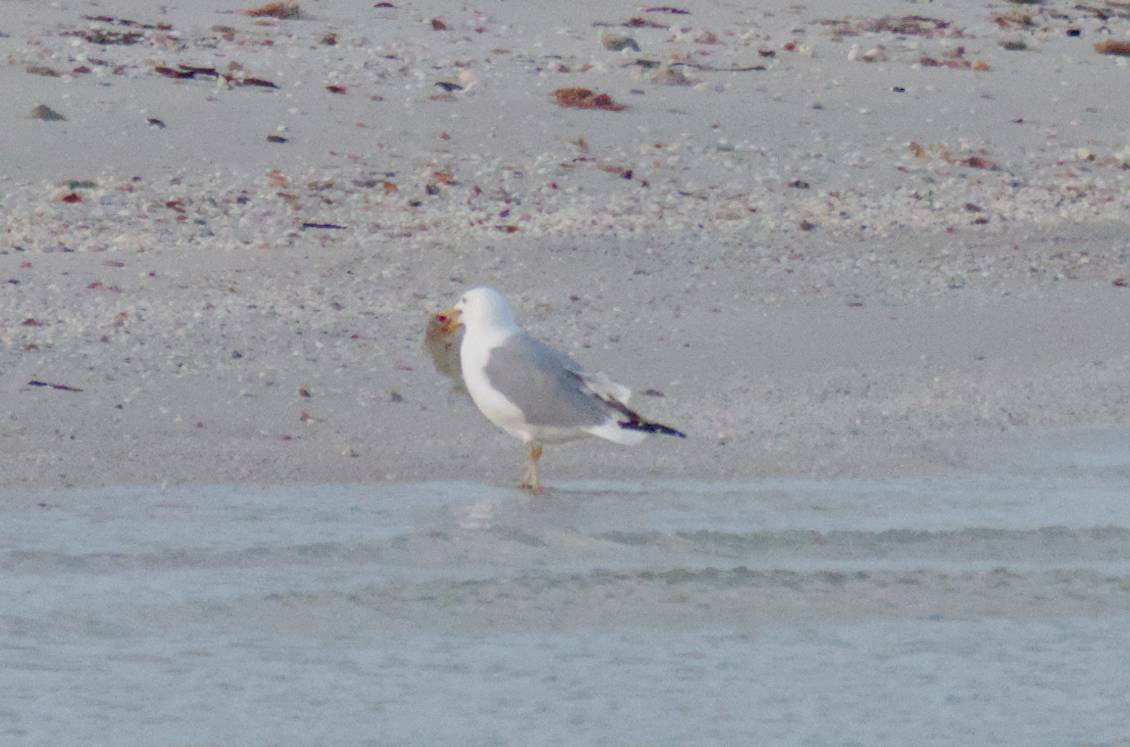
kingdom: Animalia
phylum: Chordata
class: Aves
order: Charadriiformes
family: Laridae
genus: Larus
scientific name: Larus delawarensis
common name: Ring-billed gull
